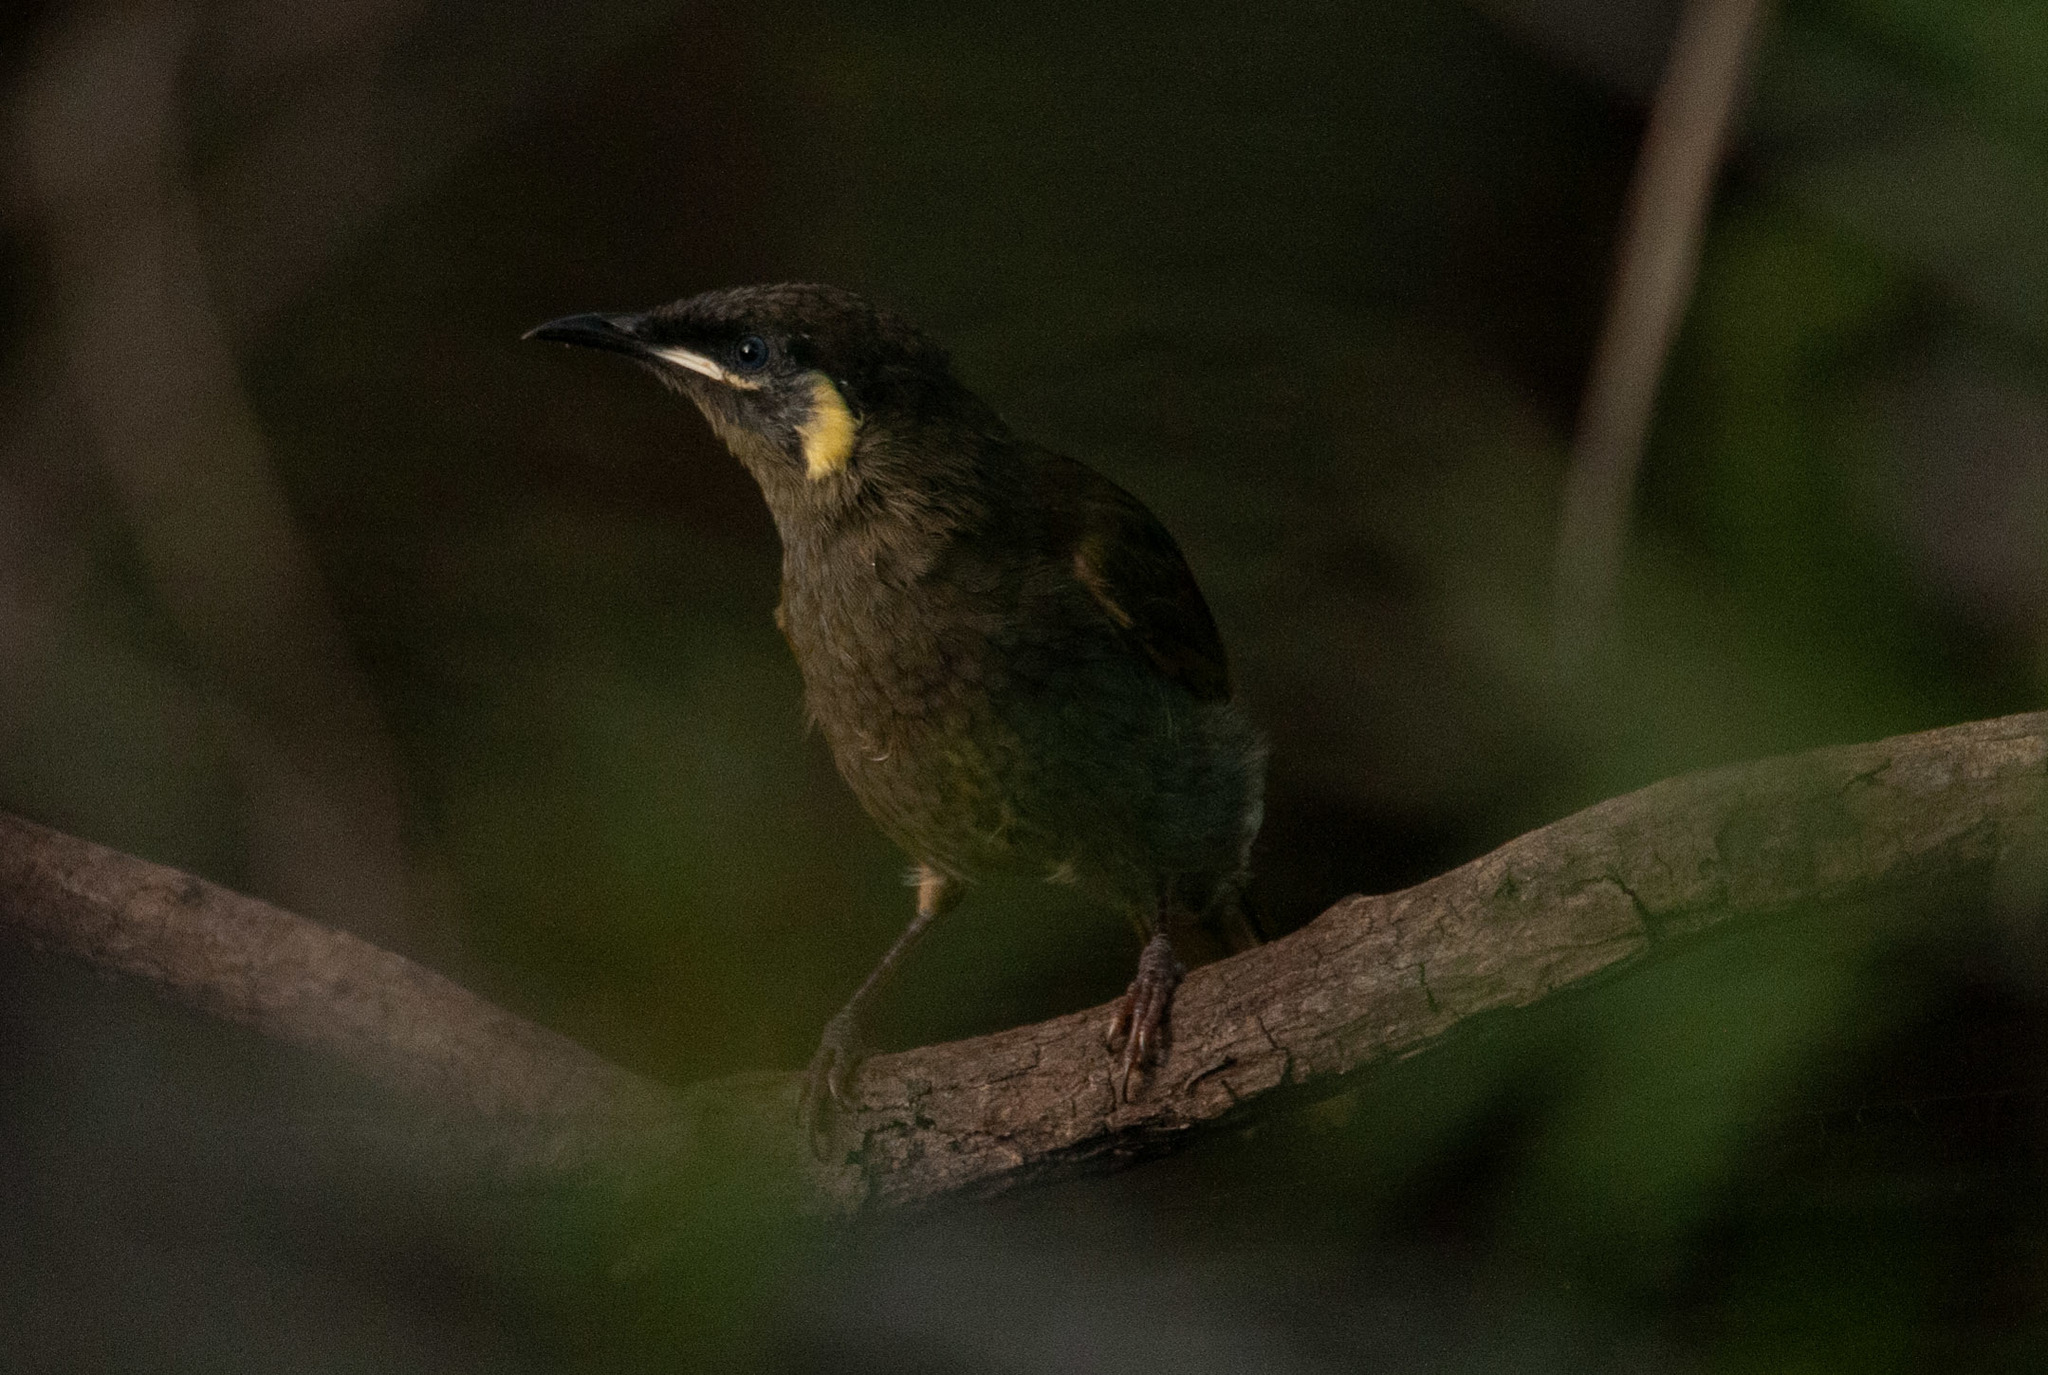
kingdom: Animalia
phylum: Chordata
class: Aves
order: Passeriformes
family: Meliphagidae
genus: Meliphaga
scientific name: Meliphaga lewinii
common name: Lewin's honeyeater
